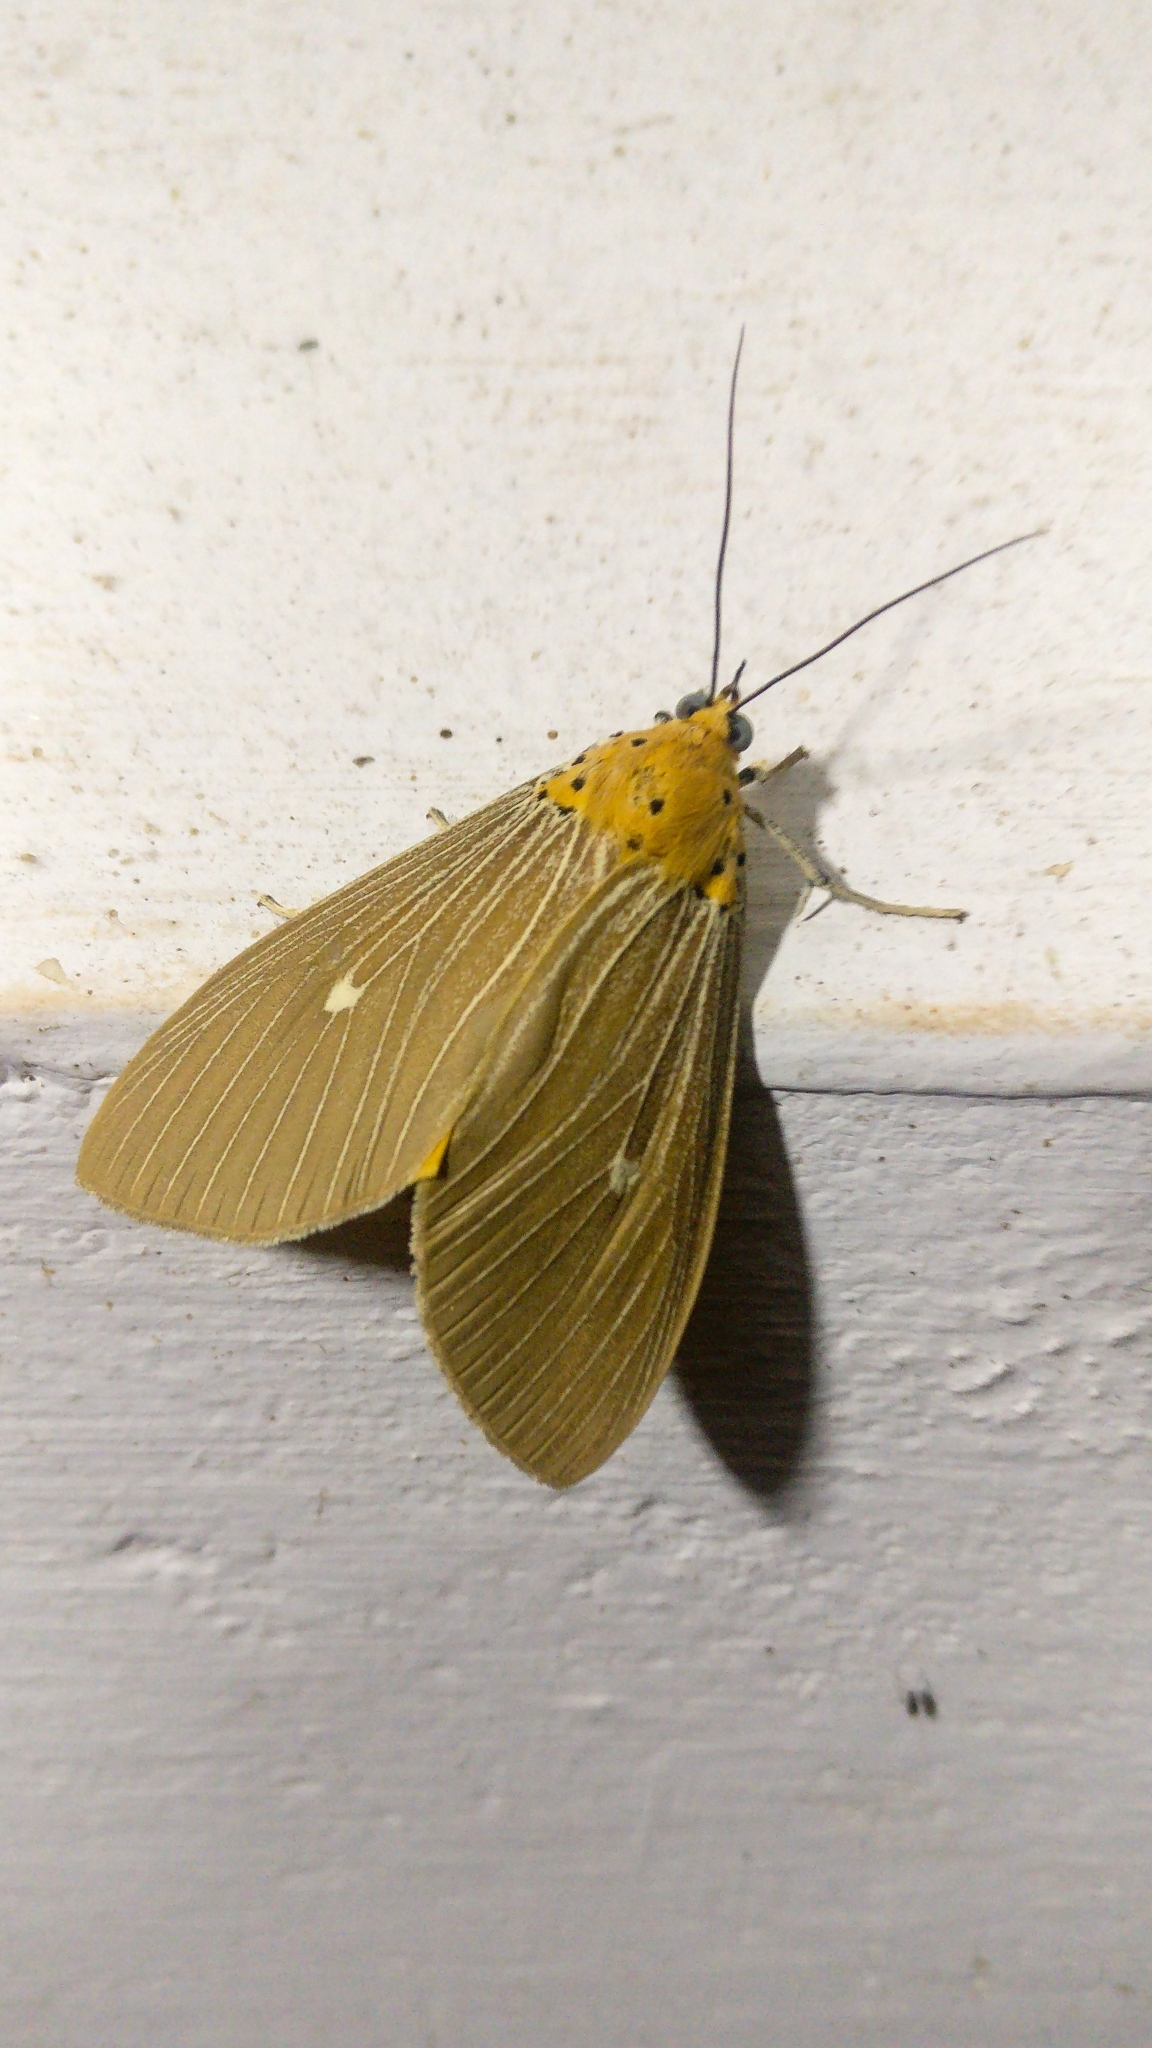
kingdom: Animalia
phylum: Arthropoda
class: Insecta
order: Lepidoptera
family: Erebidae
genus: Asota
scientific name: Asota caricae
